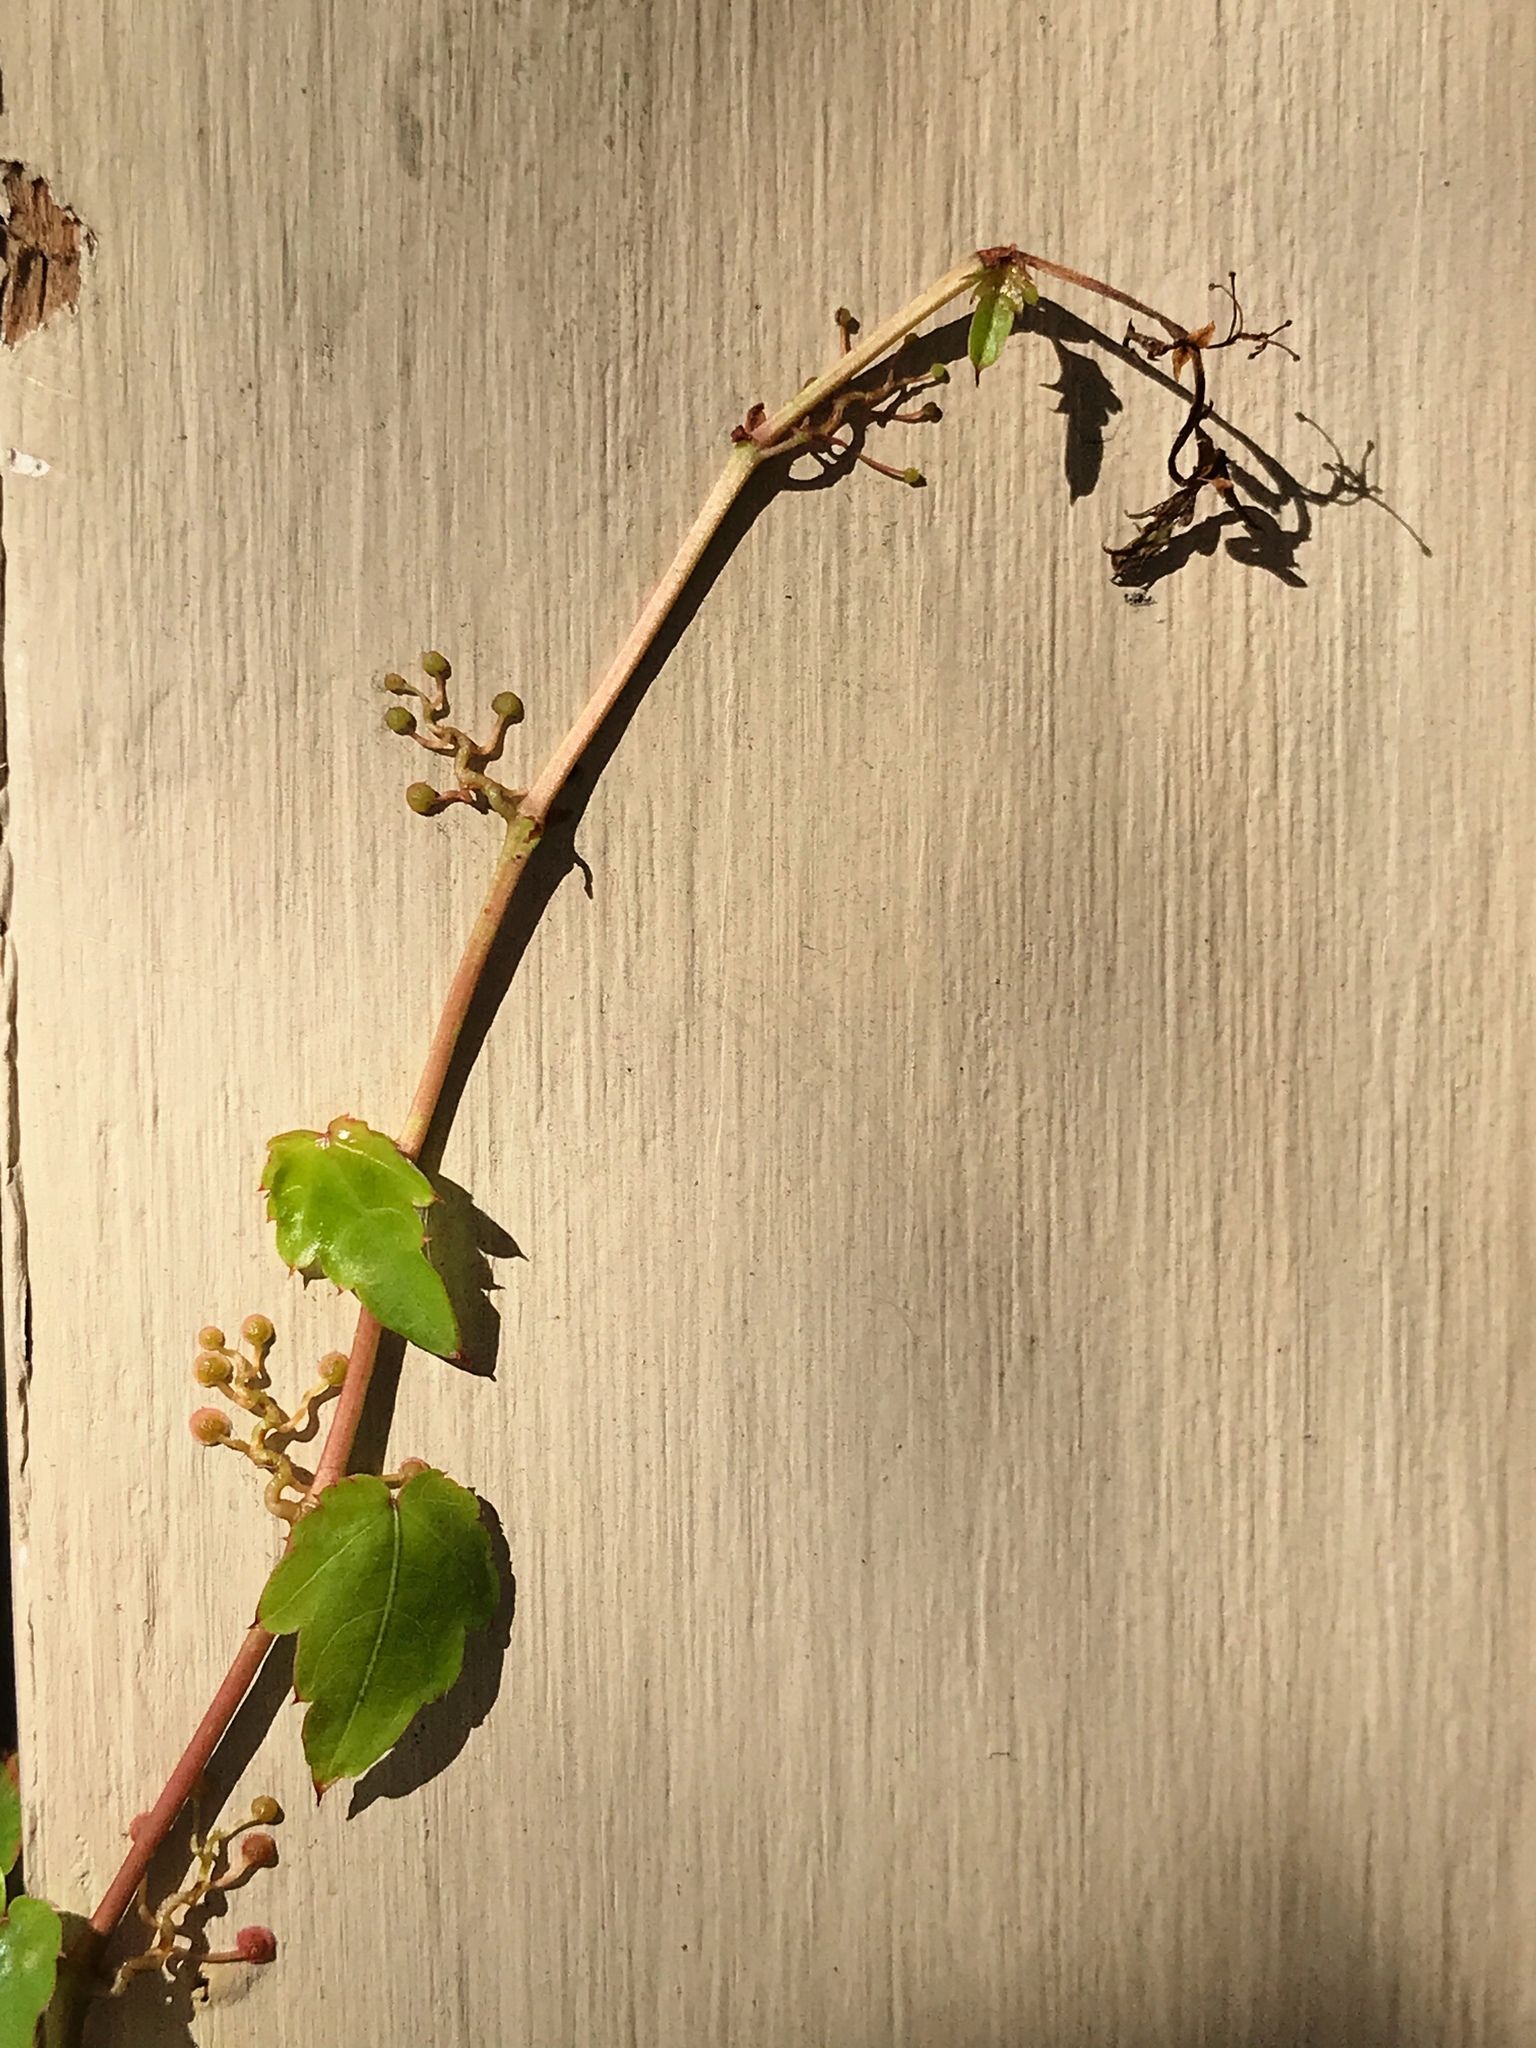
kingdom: Plantae
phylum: Tracheophyta
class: Magnoliopsida
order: Vitales
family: Vitaceae
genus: Parthenocissus
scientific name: Parthenocissus tricuspidata
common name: Boston ivy
